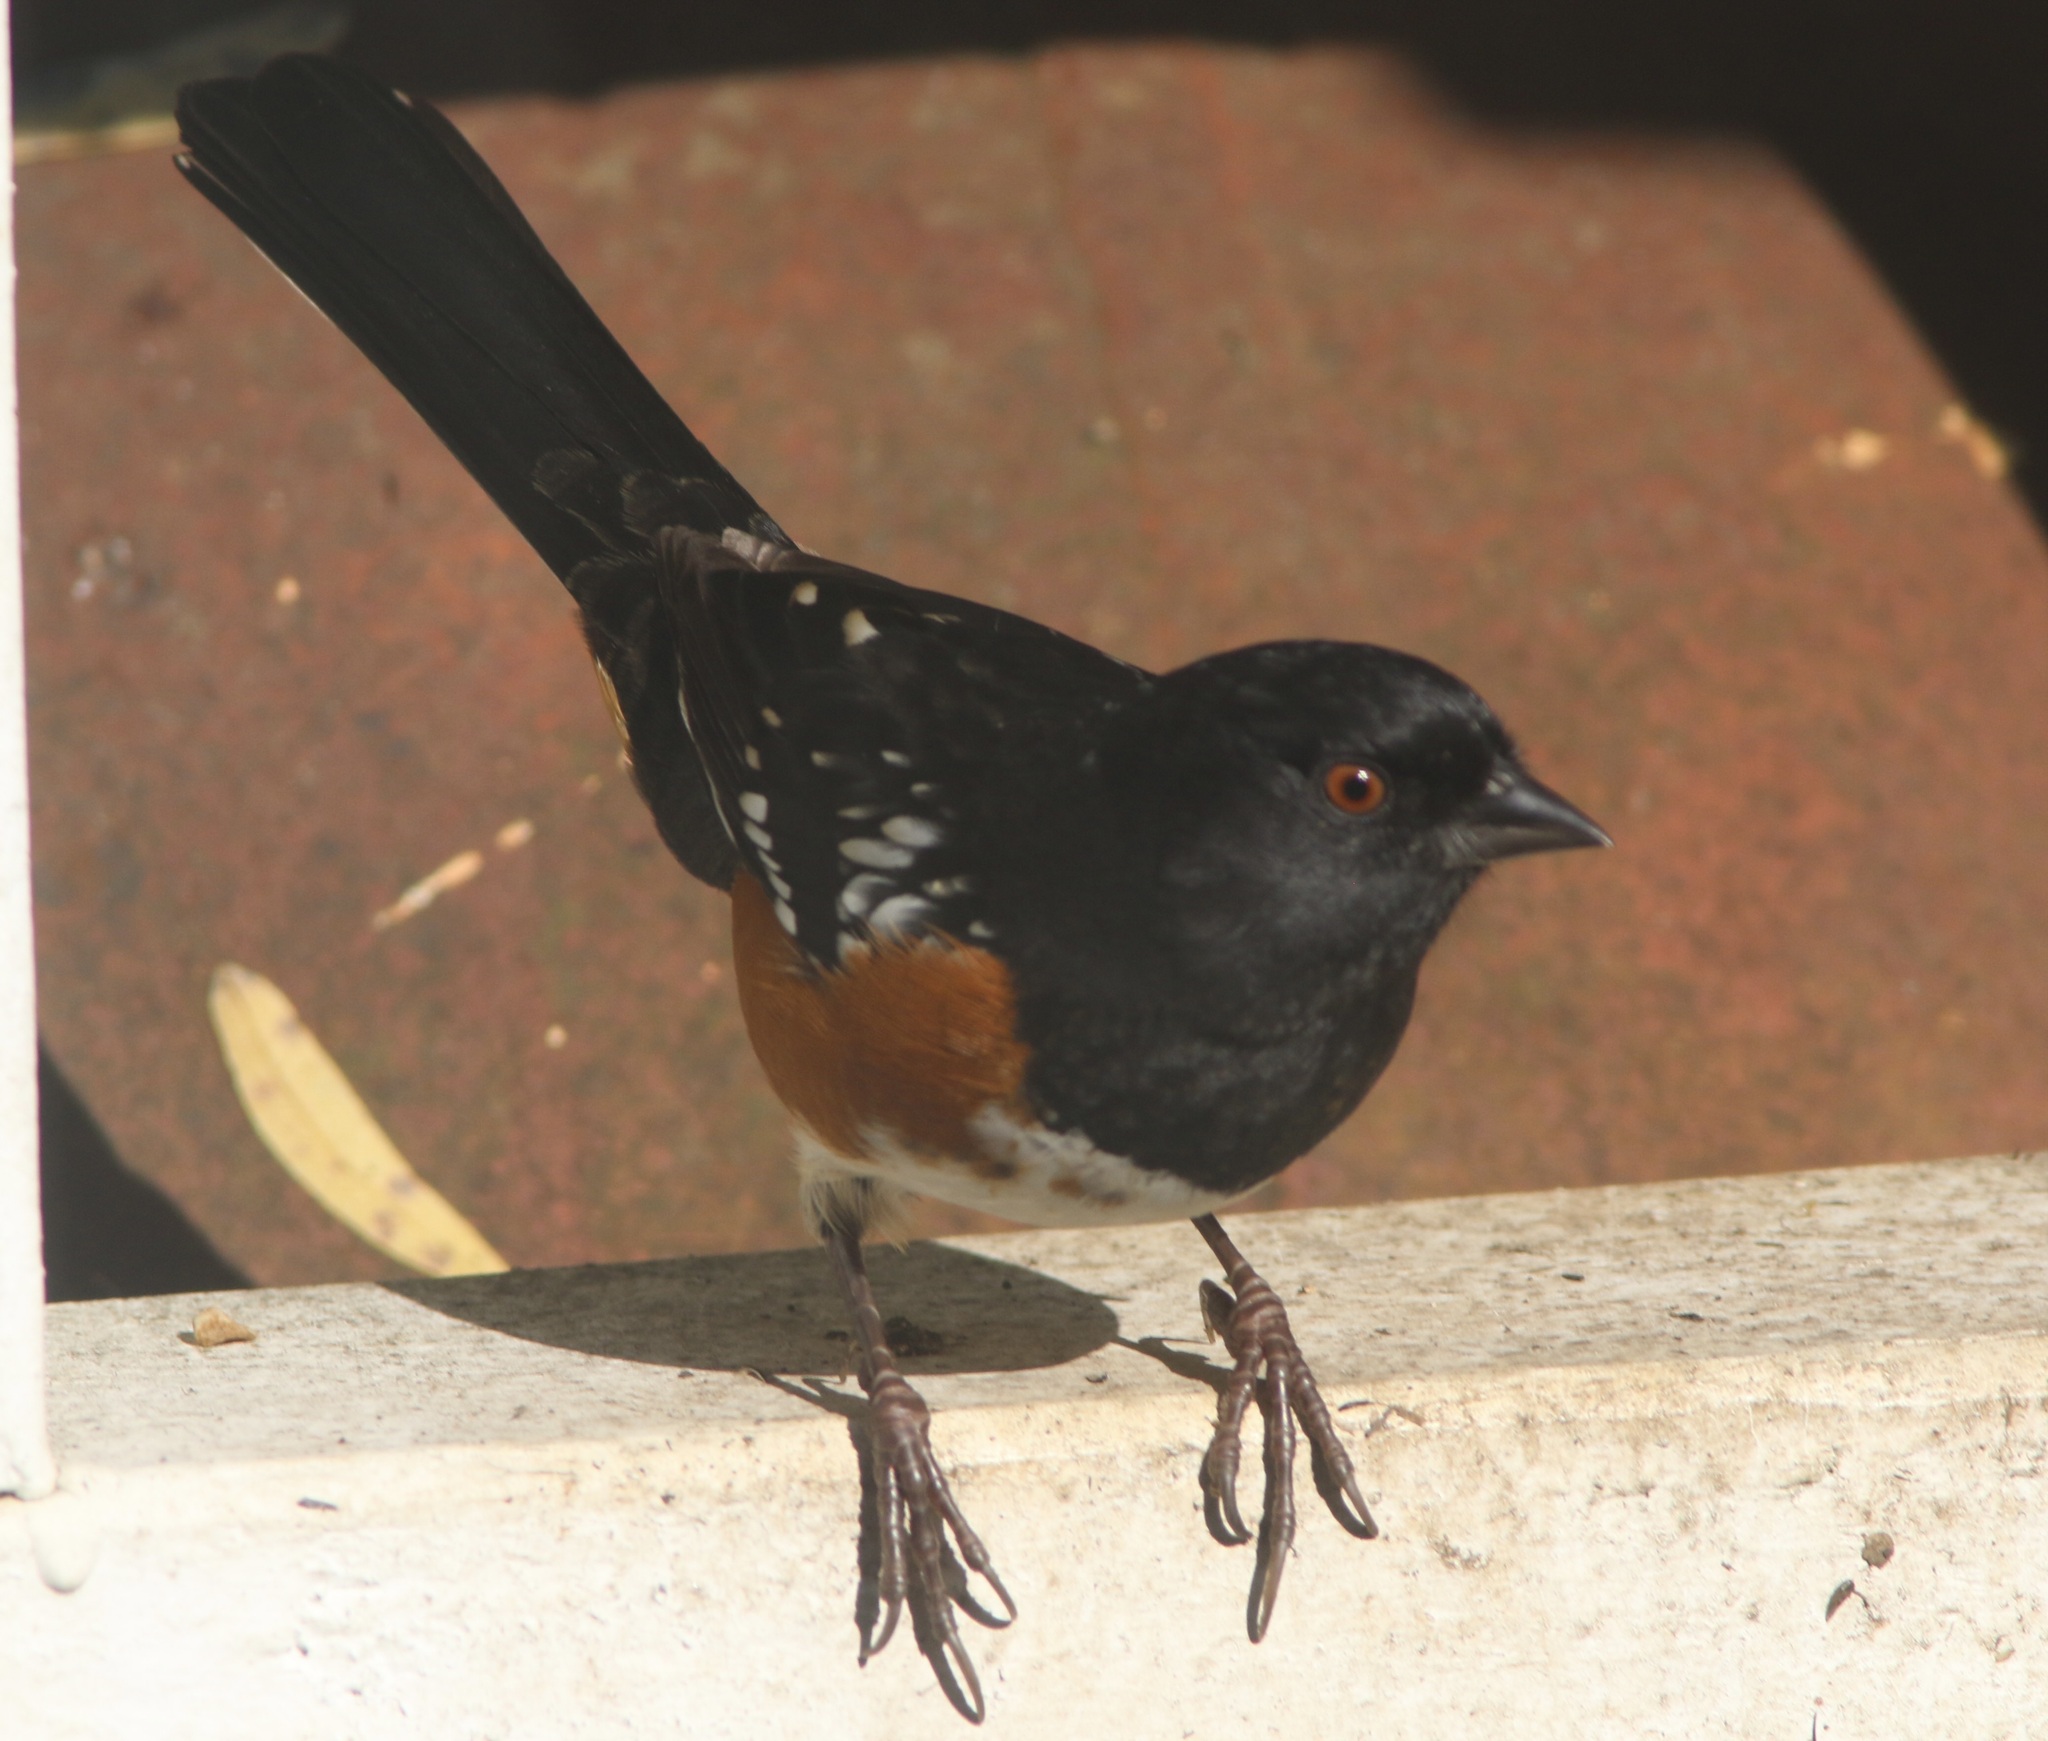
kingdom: Animalia
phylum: Chordata
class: Aves
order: Passeriformes
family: Passerellidae
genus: Pipilo
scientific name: Pipilo maculatus
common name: Spotted towhee
